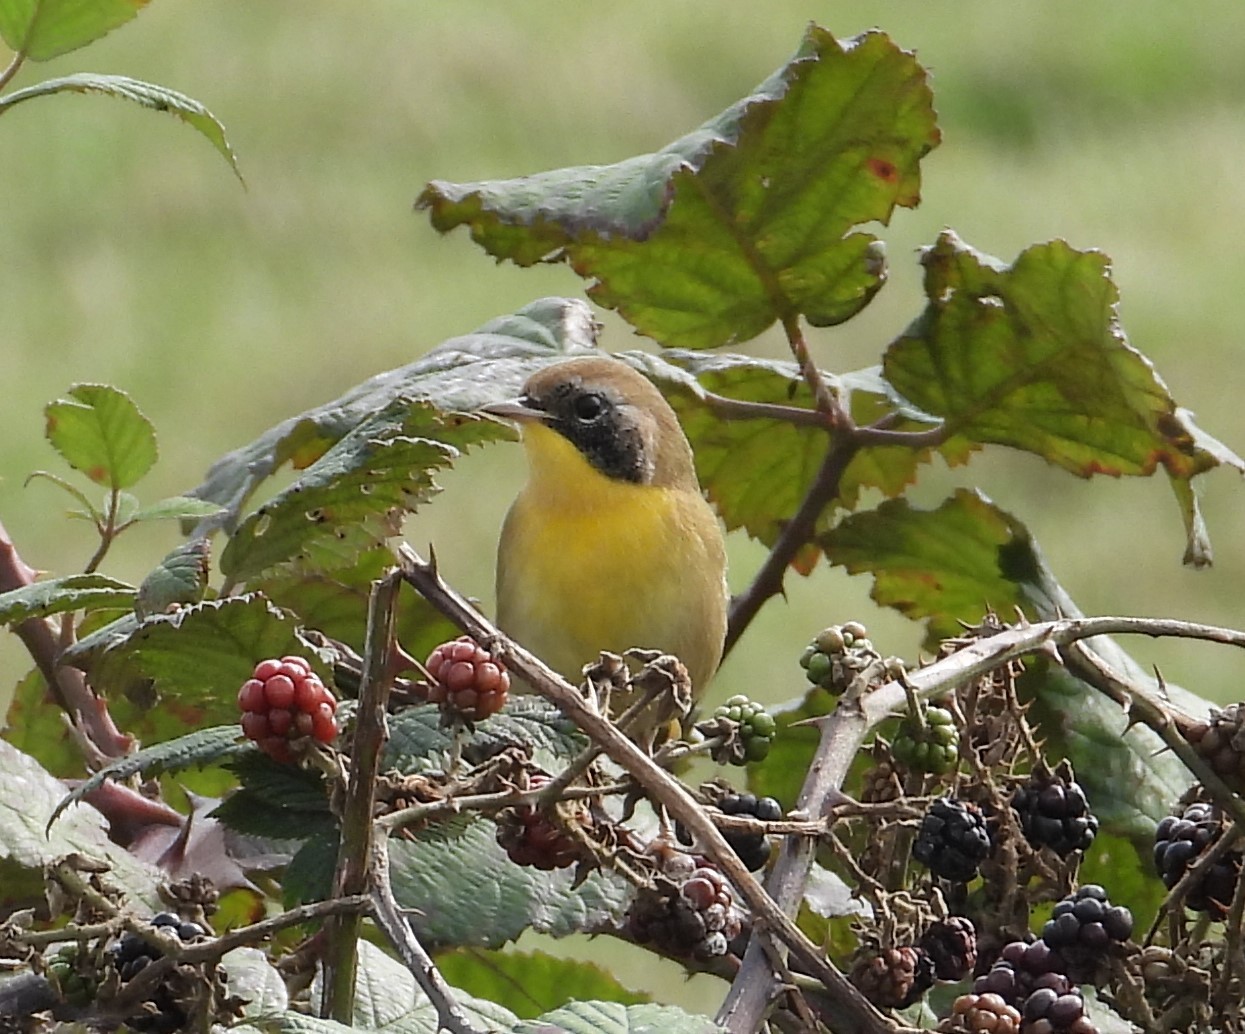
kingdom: Animalia
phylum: Chordata
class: Aves
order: Passeriformes
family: Parulidae
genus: Geothlypis
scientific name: Geothlypis trichas
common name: Common yellowthroat
